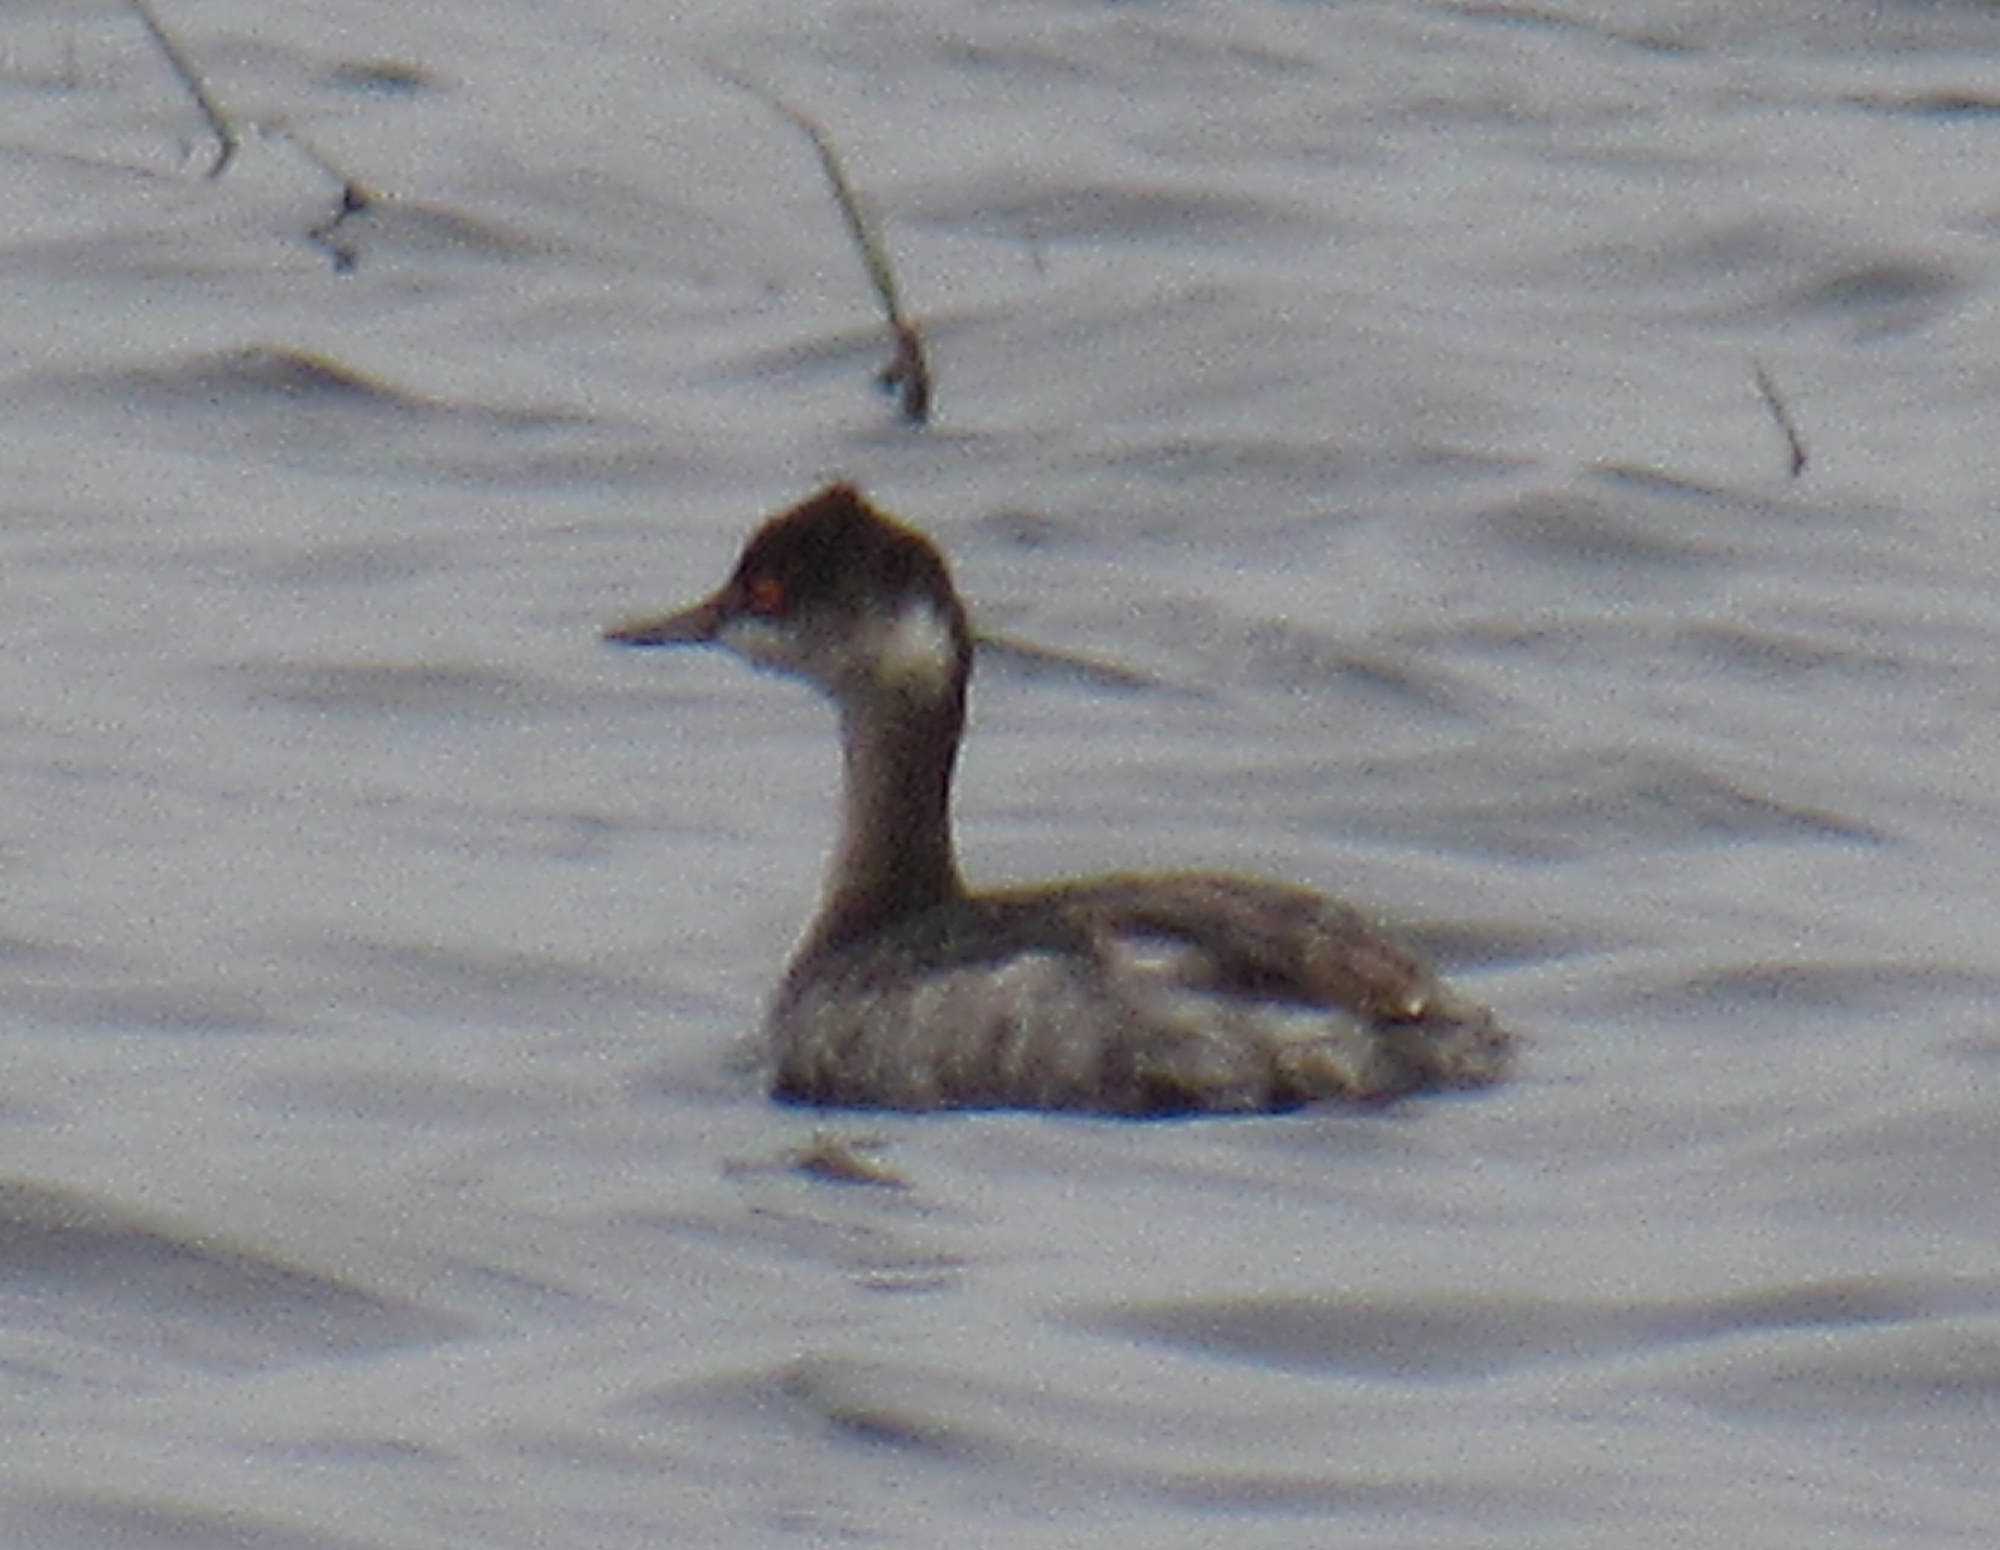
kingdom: Animalia
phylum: Chordata
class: Aves
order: Podicipediformes
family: Podicipedidae
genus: Podiceps
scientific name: Podiceps nigricollis
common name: Black-necked grebe
